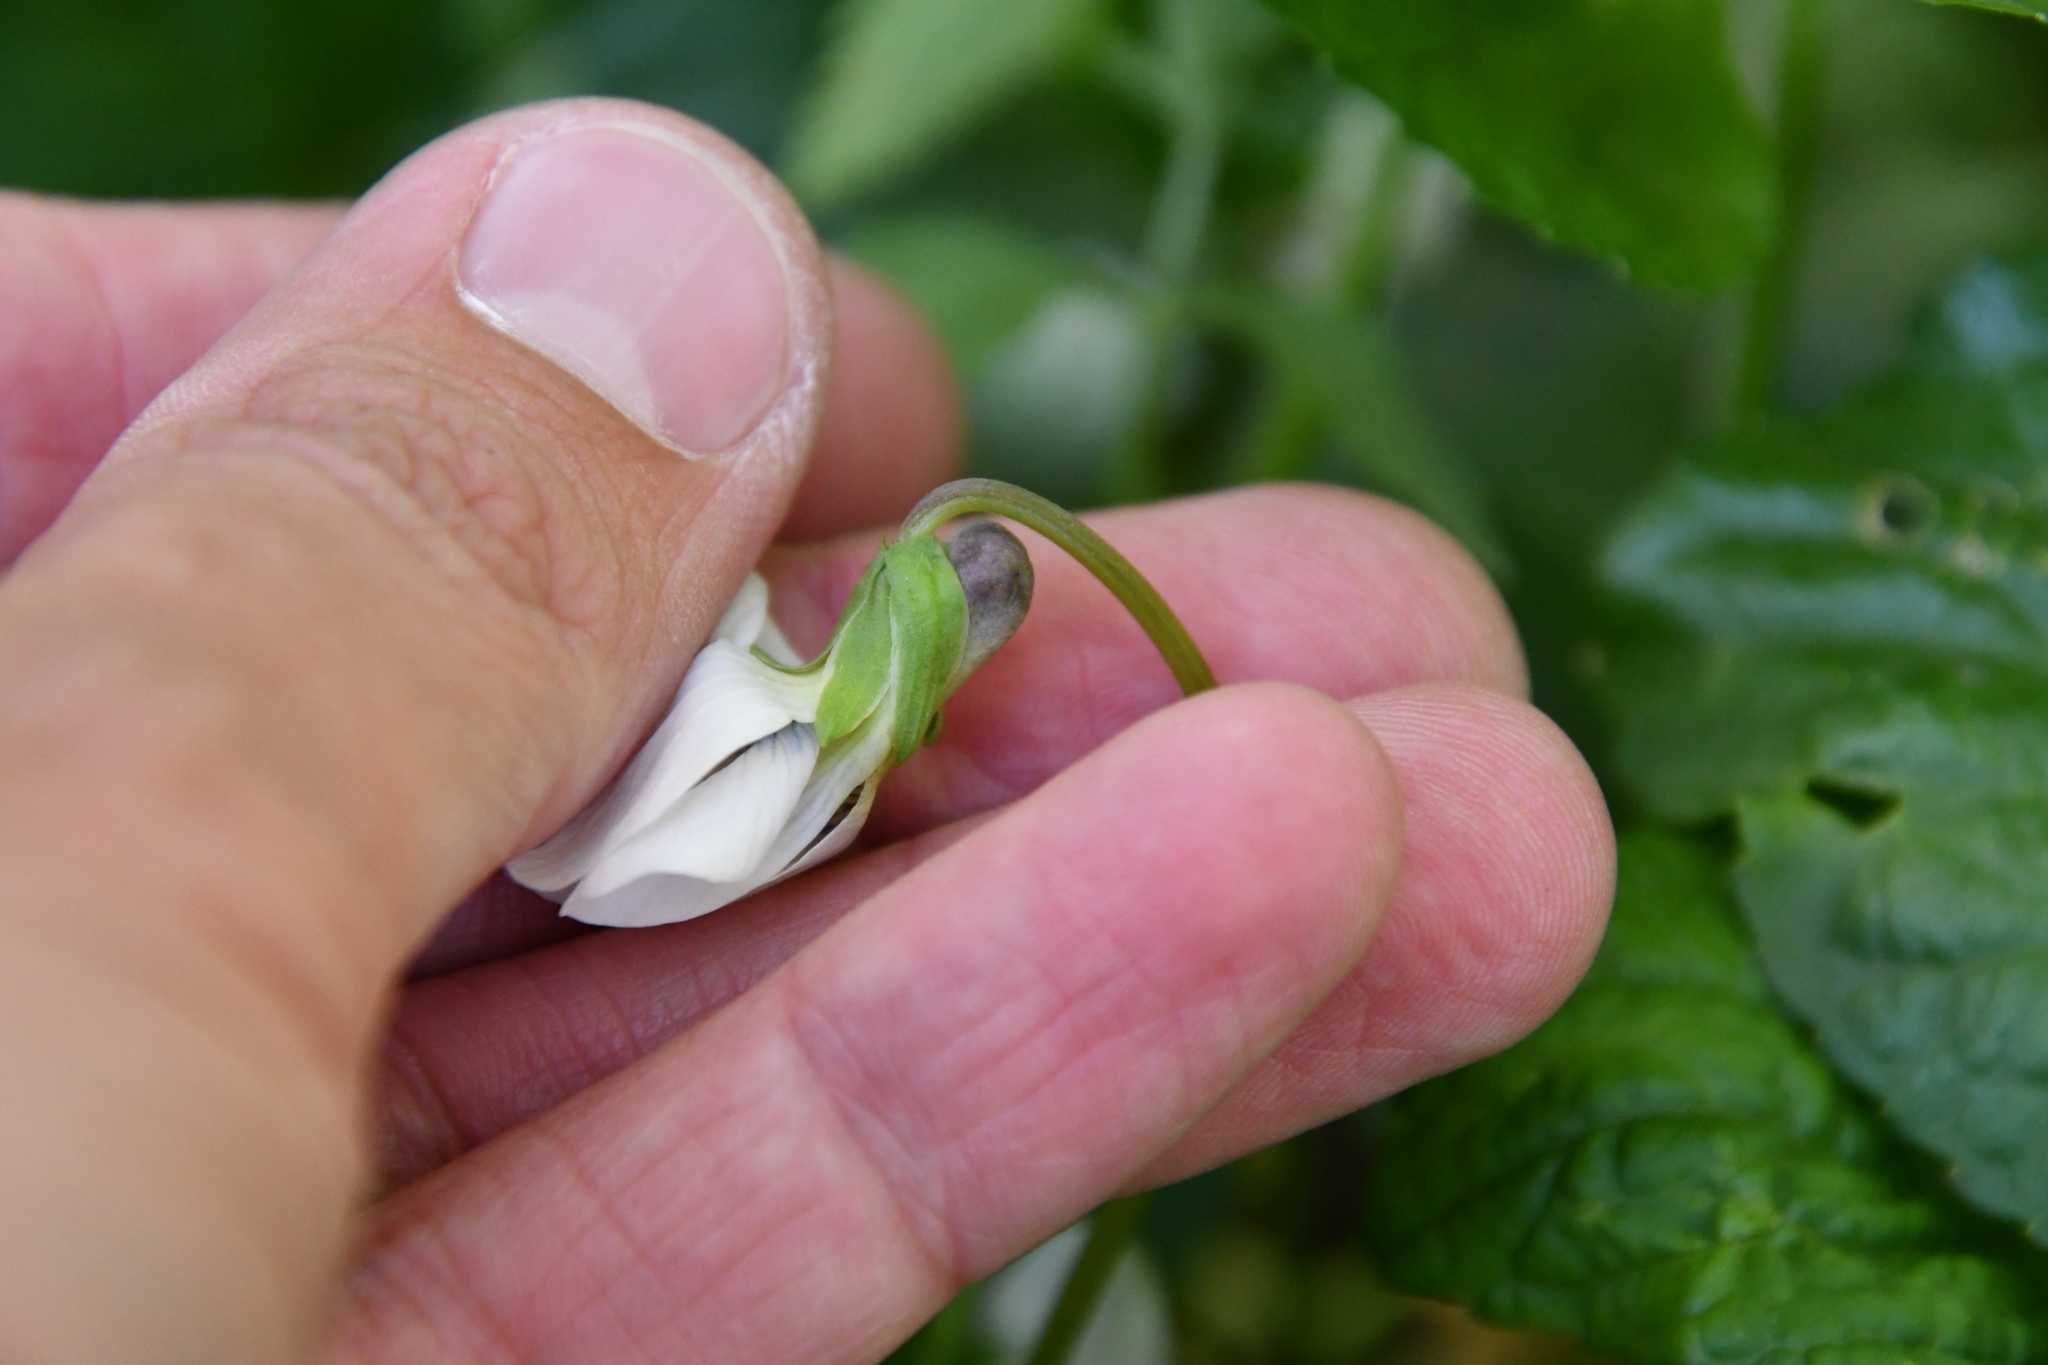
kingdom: Plantae
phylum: Tracheophyta
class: Magnoliopsida
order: Malpighiales
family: Violaceae
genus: Viola
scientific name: Viola sororia
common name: Dooryard violet
